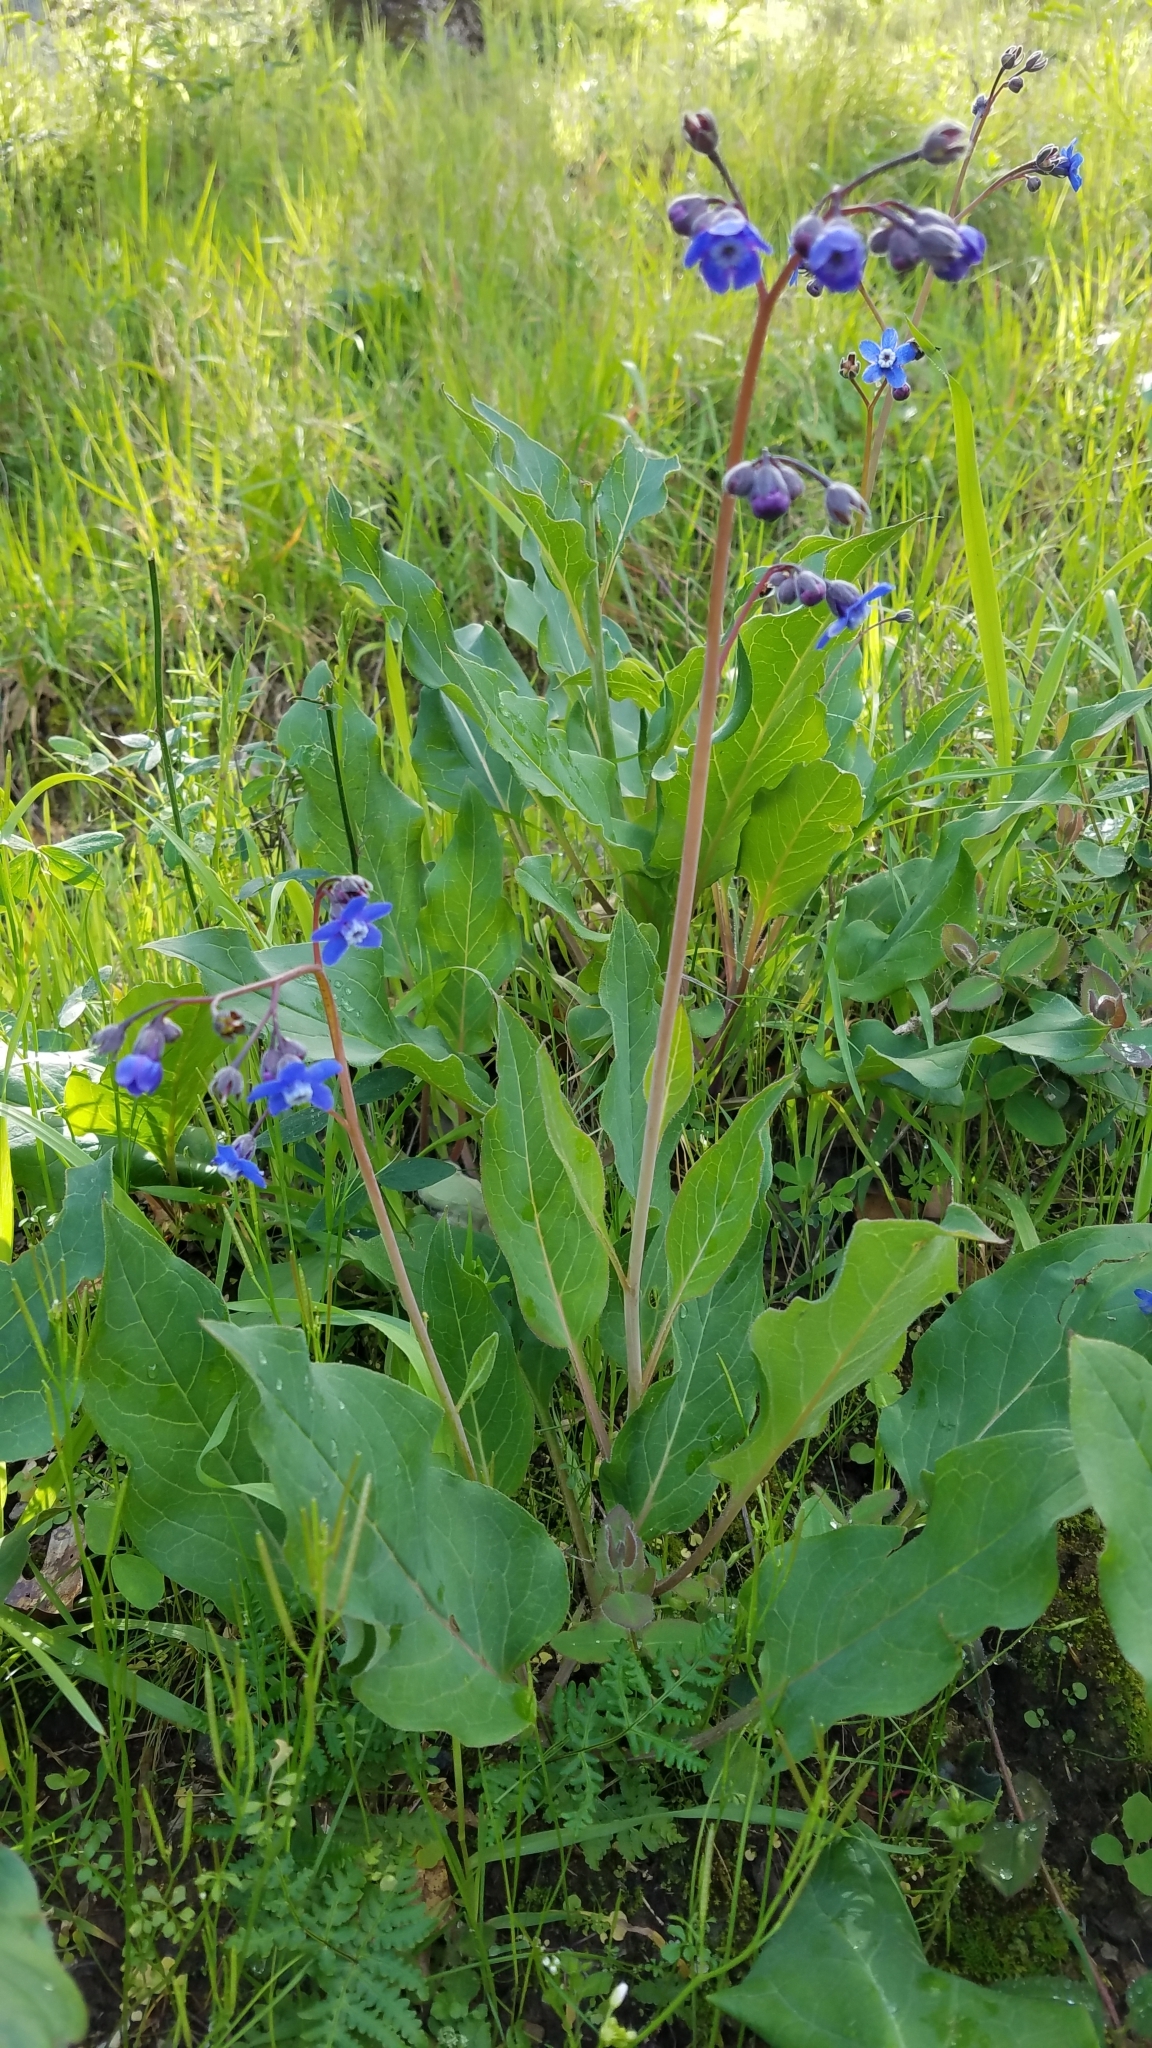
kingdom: Plantae
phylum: Tracheophyta
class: Magnoliopsida
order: Boraginales
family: Boraginaceae
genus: Adelinia
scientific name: Adelinia grande
